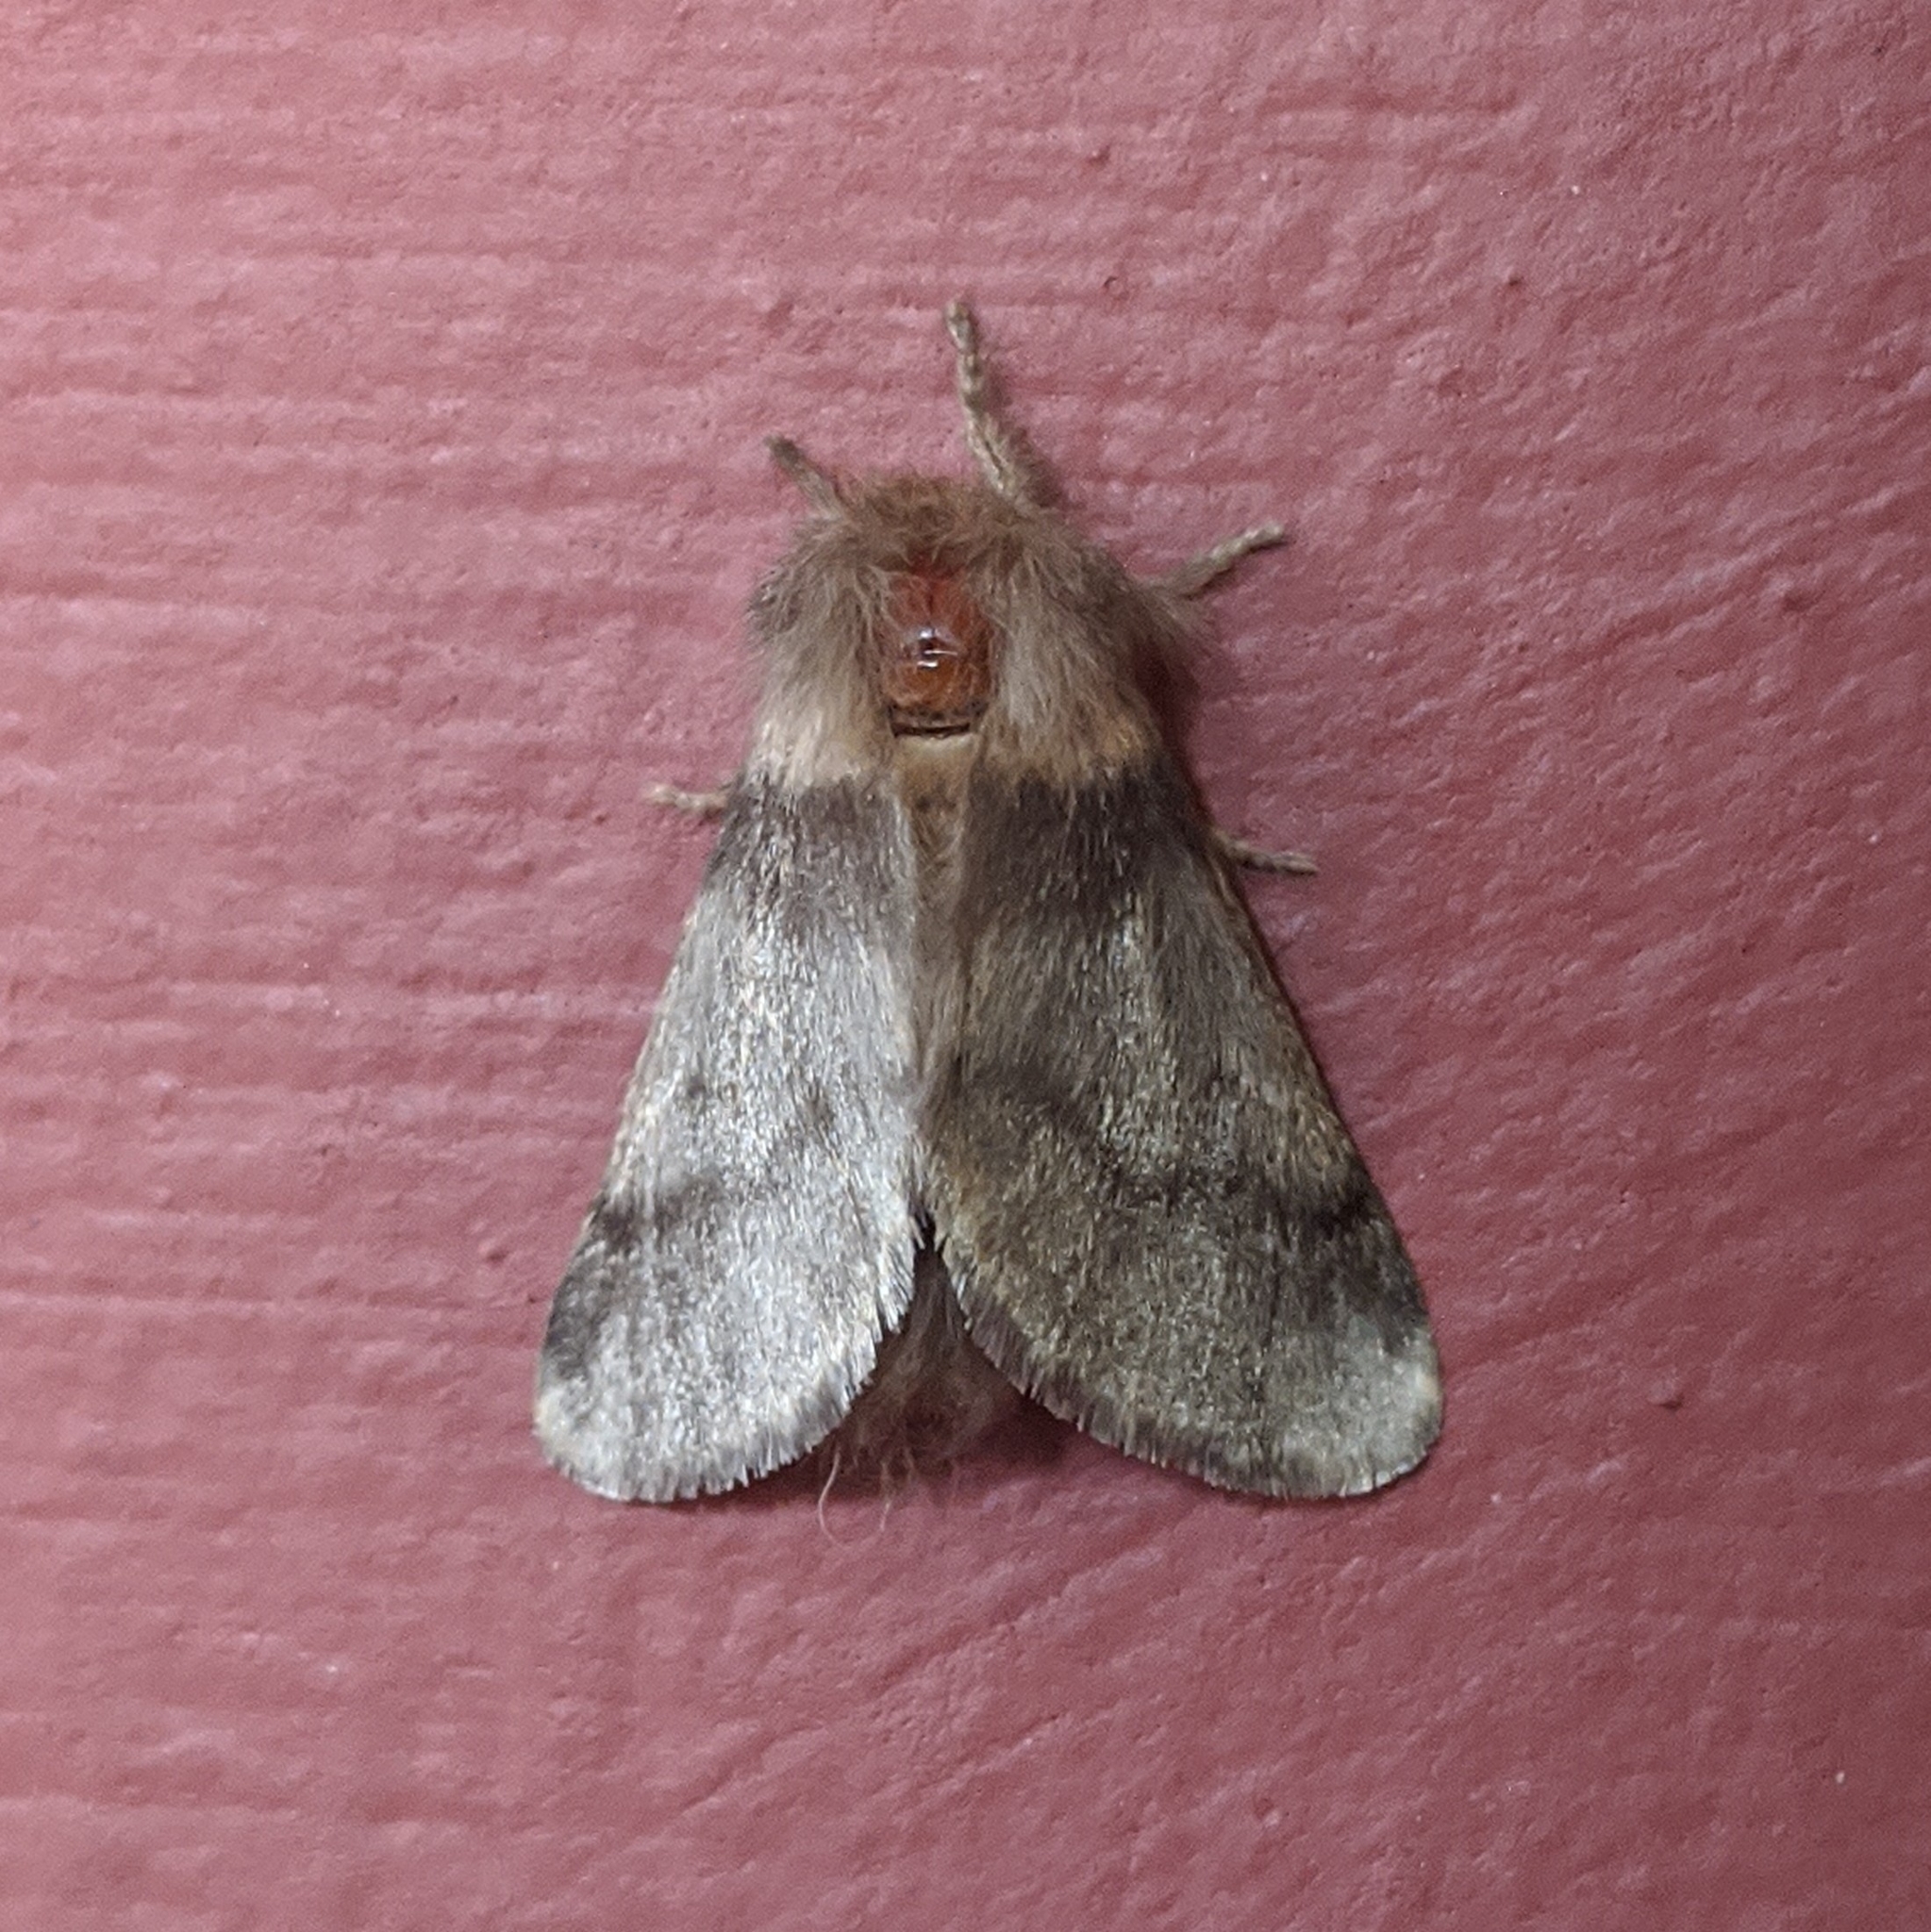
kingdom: Animalia
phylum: Arthropoda
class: Insecta
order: Lepidoptera
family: Notodontidae
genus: Thaumetopoea
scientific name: Thaumetopoea processionea
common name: Oak processionea
